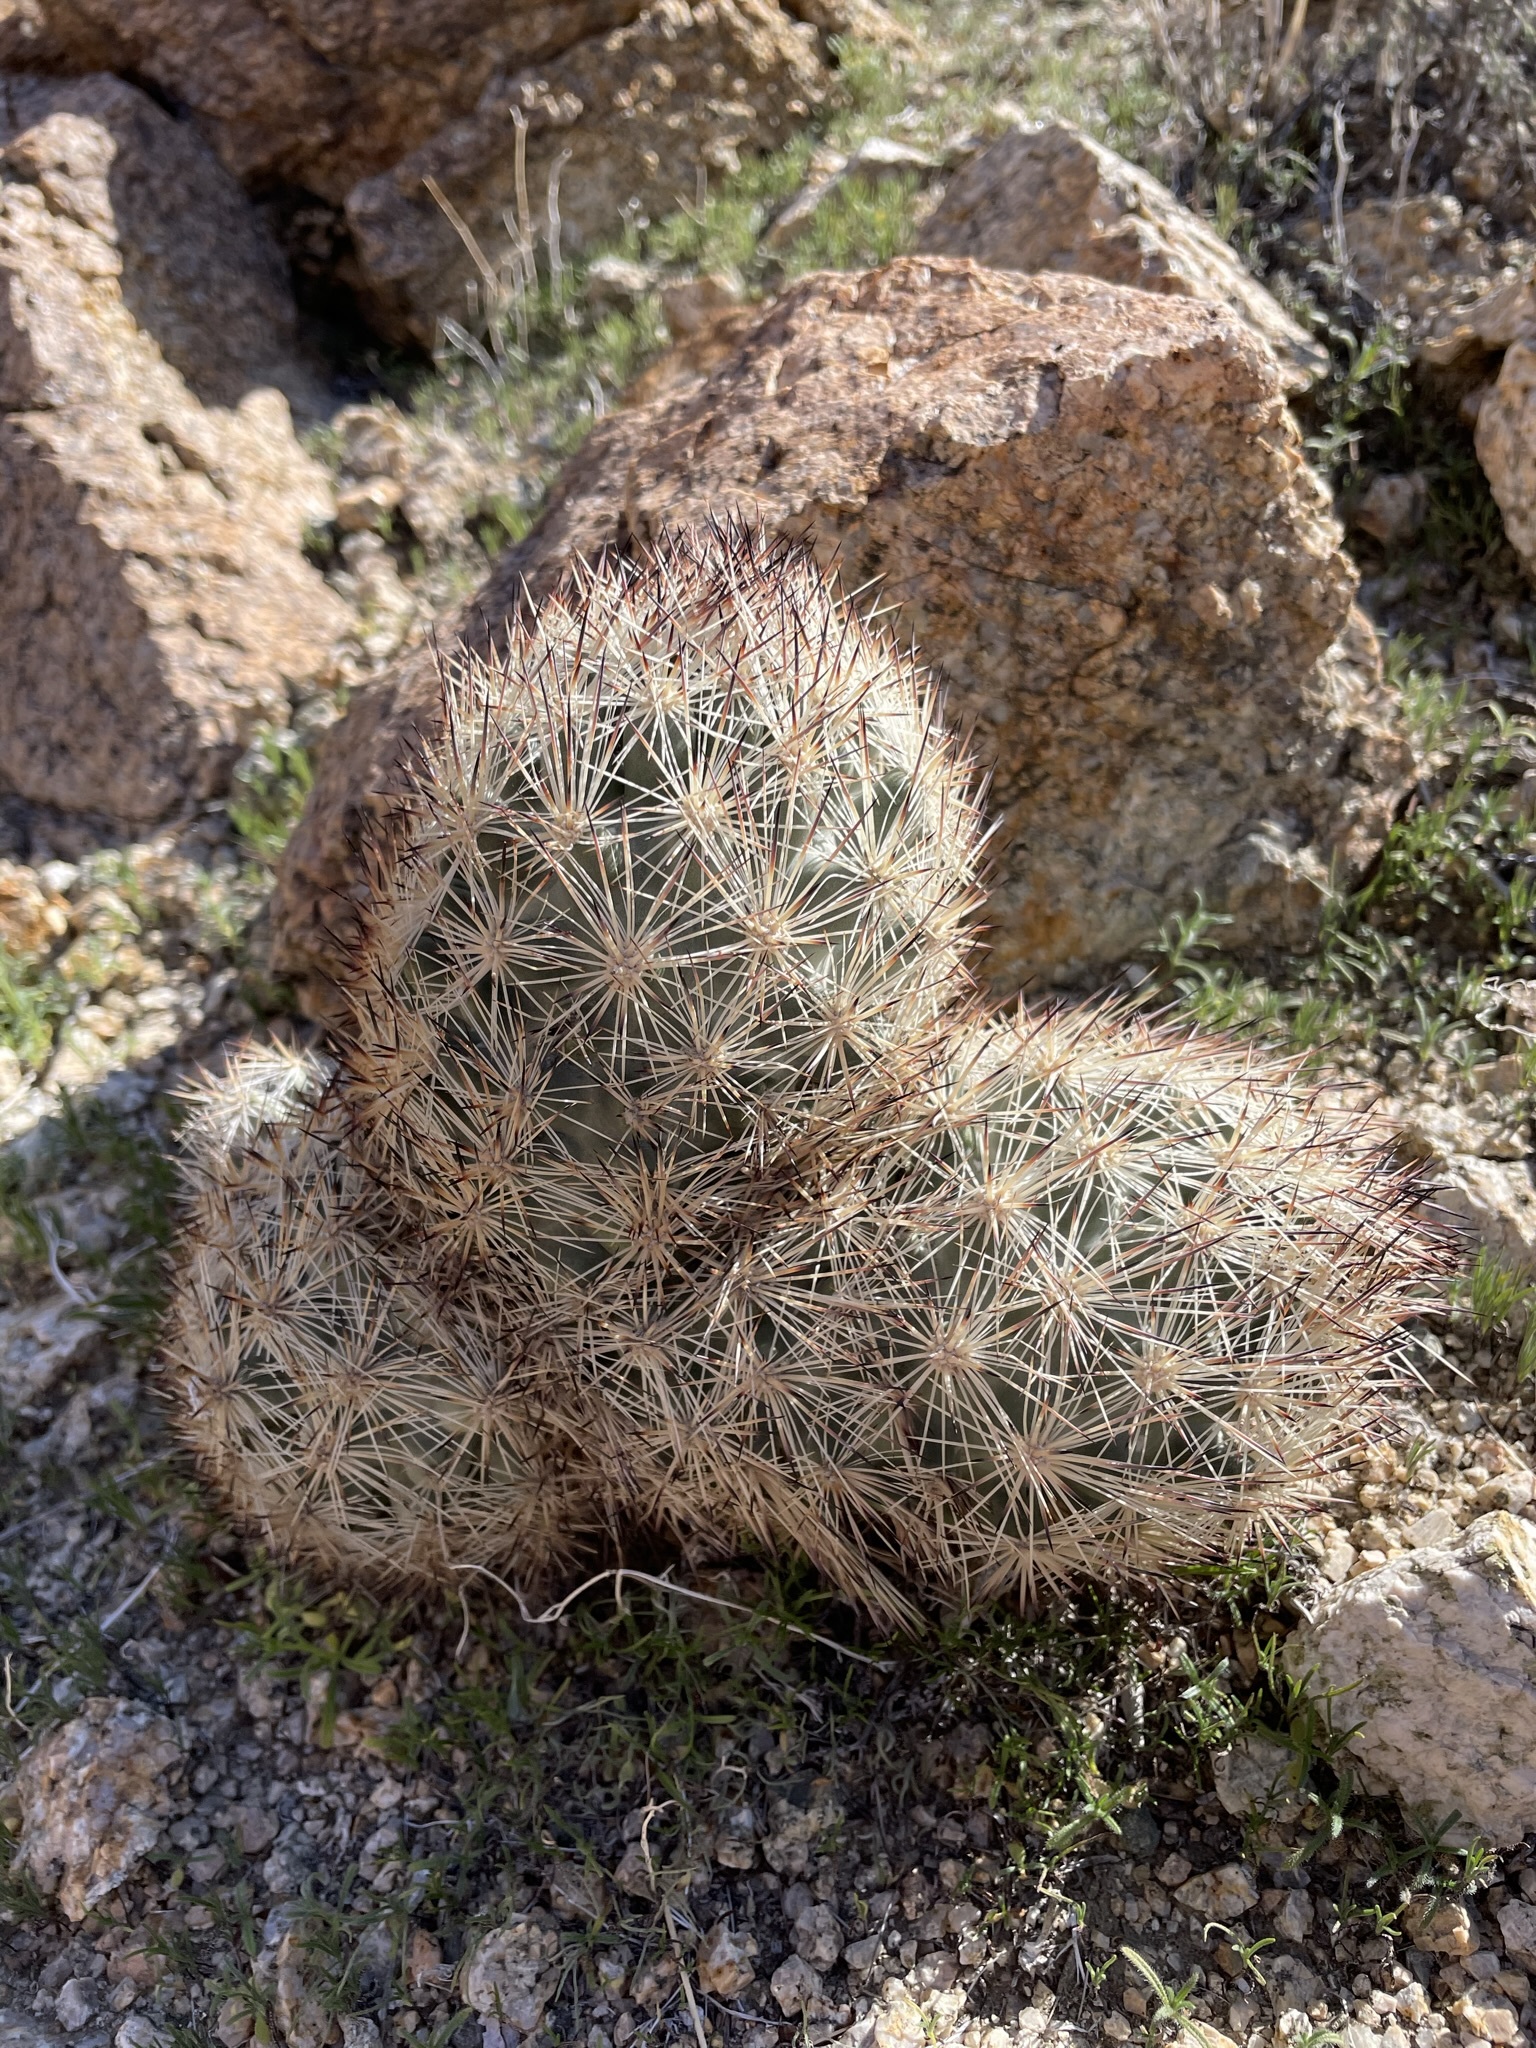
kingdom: Plantae
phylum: Tracheophyta
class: Magnoliopsida
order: Caryophyllales
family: Cactaceae
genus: Pelecyphora
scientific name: Pelecyphora alversonii
